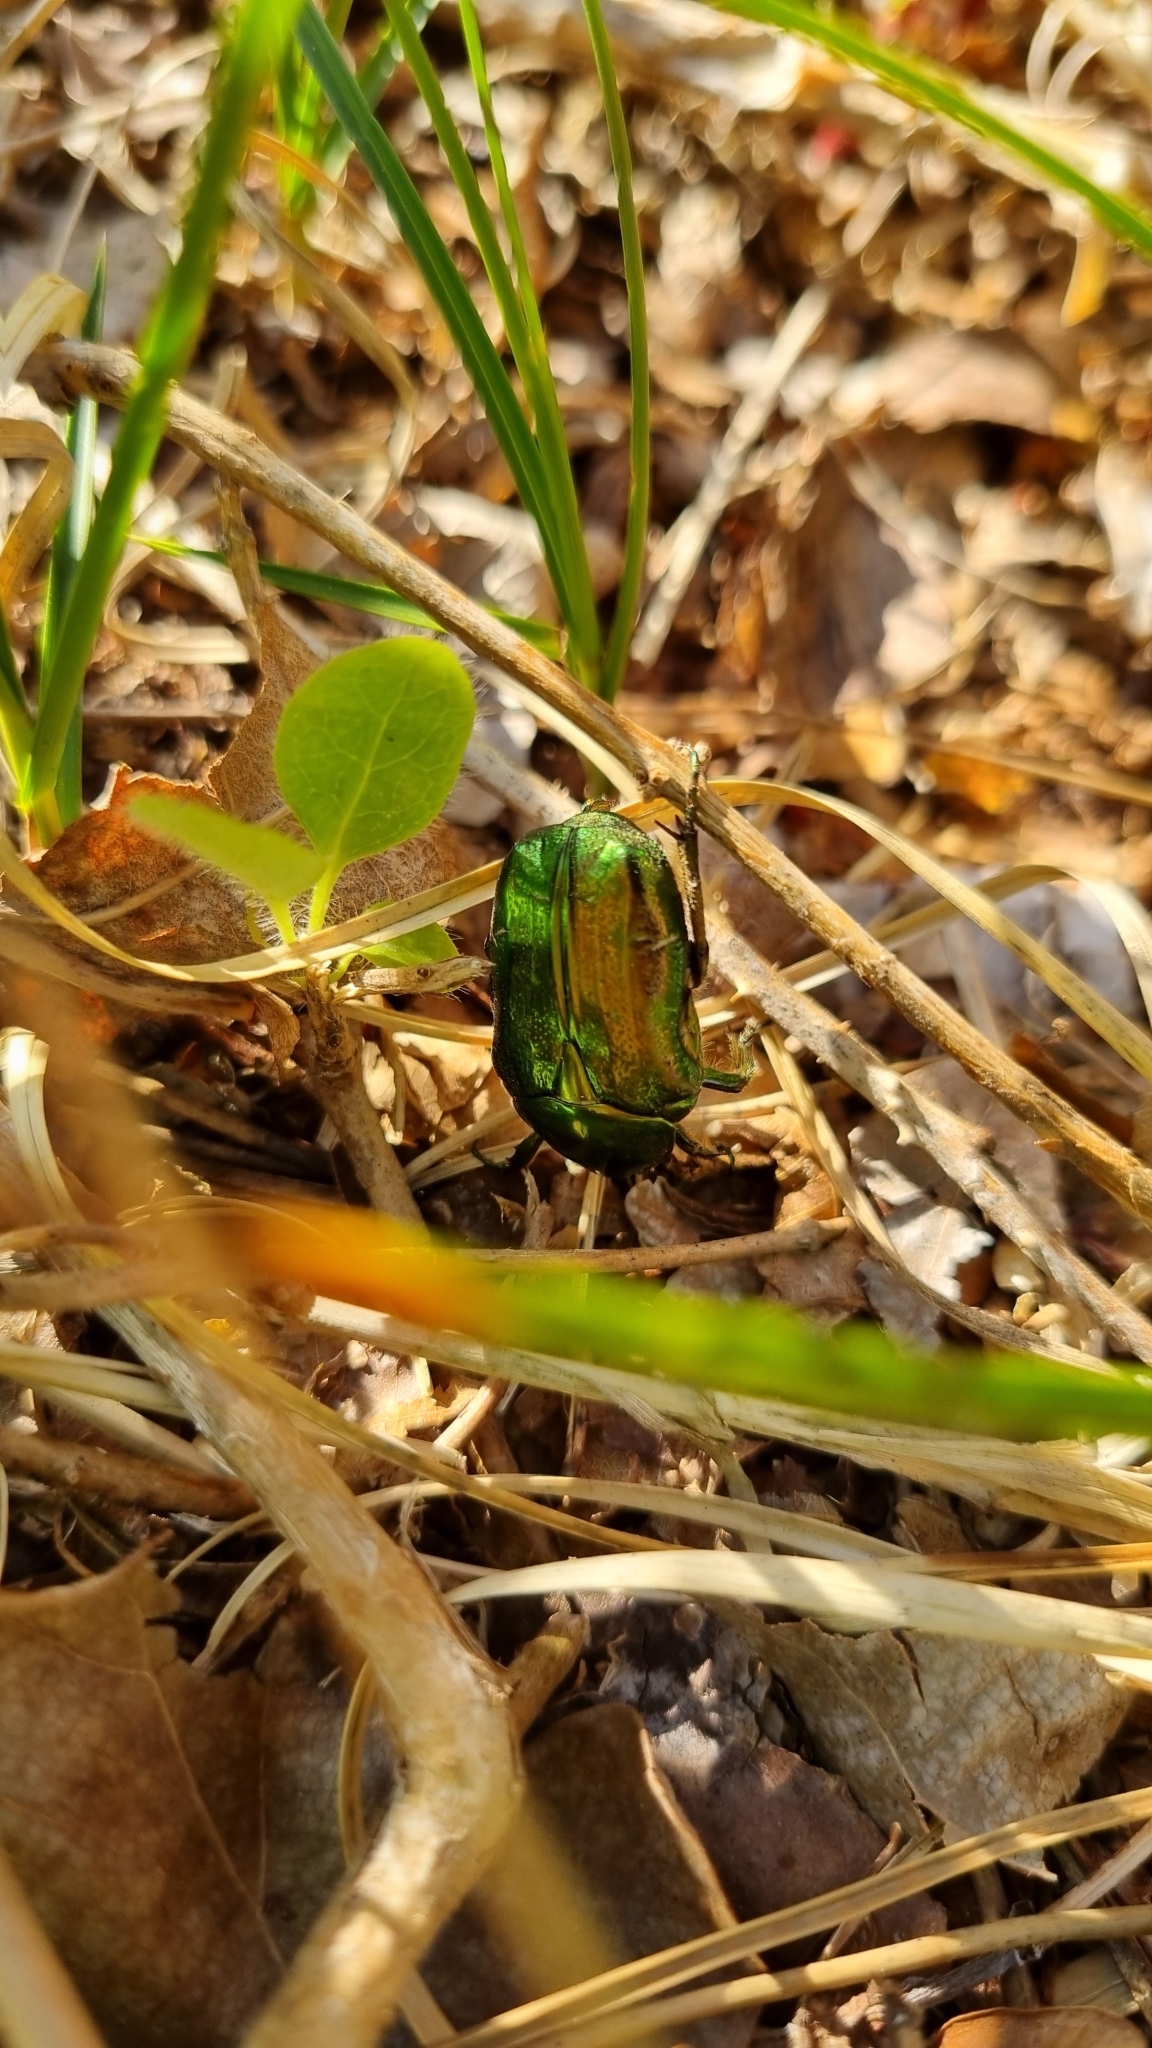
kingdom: Animalia
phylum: Arthropoda
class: Insecta
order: Coleoptera
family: Scarabaeidae
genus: Cetonia
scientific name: Cetonia aurata
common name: Rose chafer
